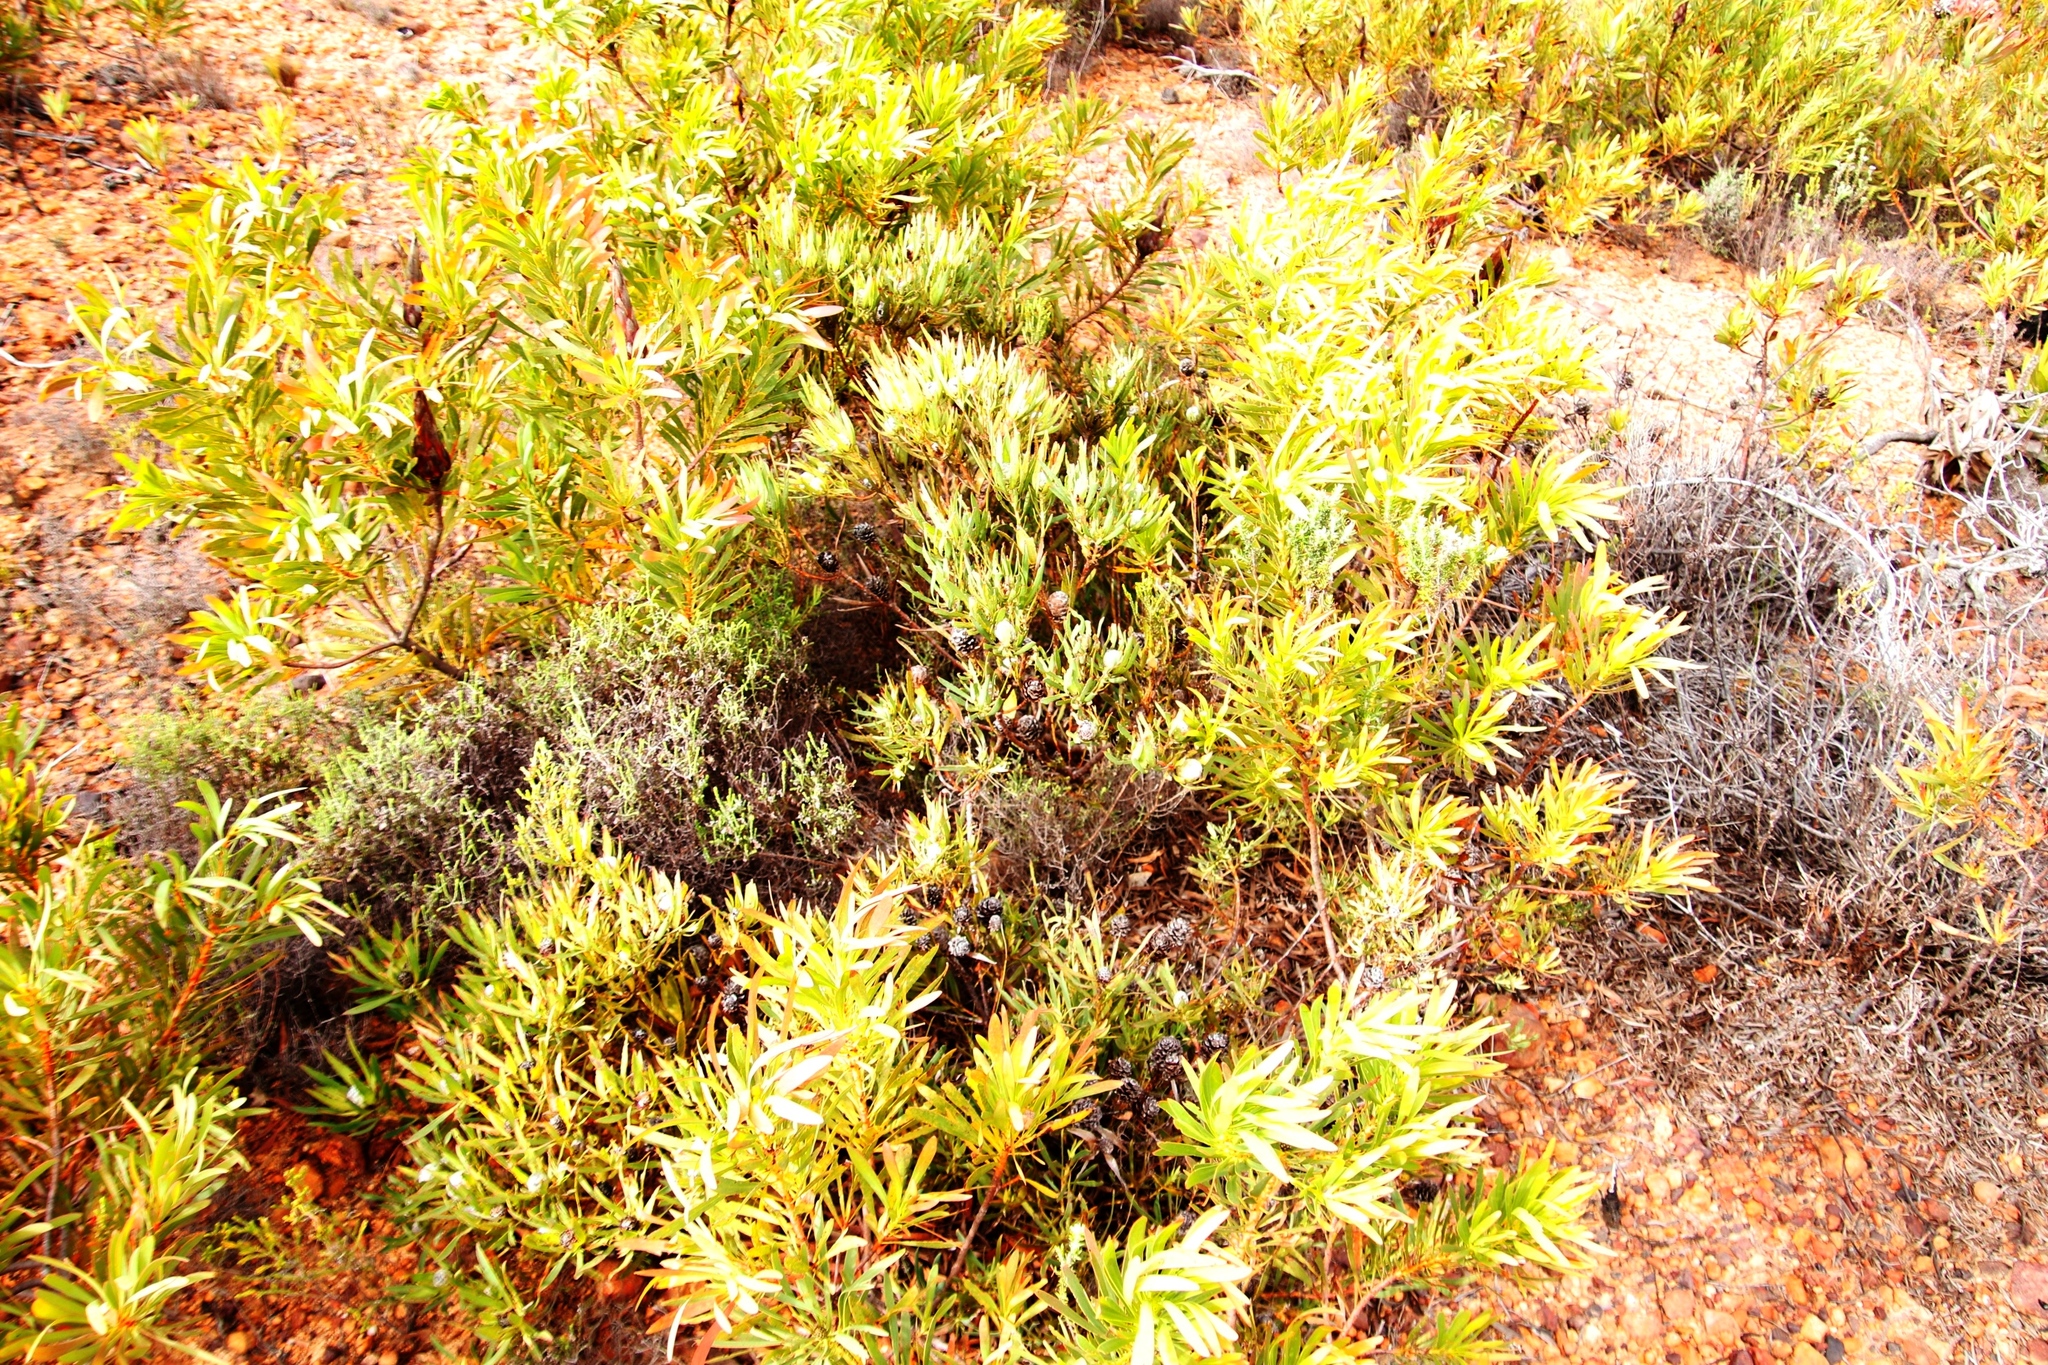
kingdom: Plantae
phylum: Tracheophyta
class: Magnoliopsida
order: Proteales
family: Proteaceae
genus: Leucadendron
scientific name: Leucadendron salignum
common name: Common sunshine conebush
